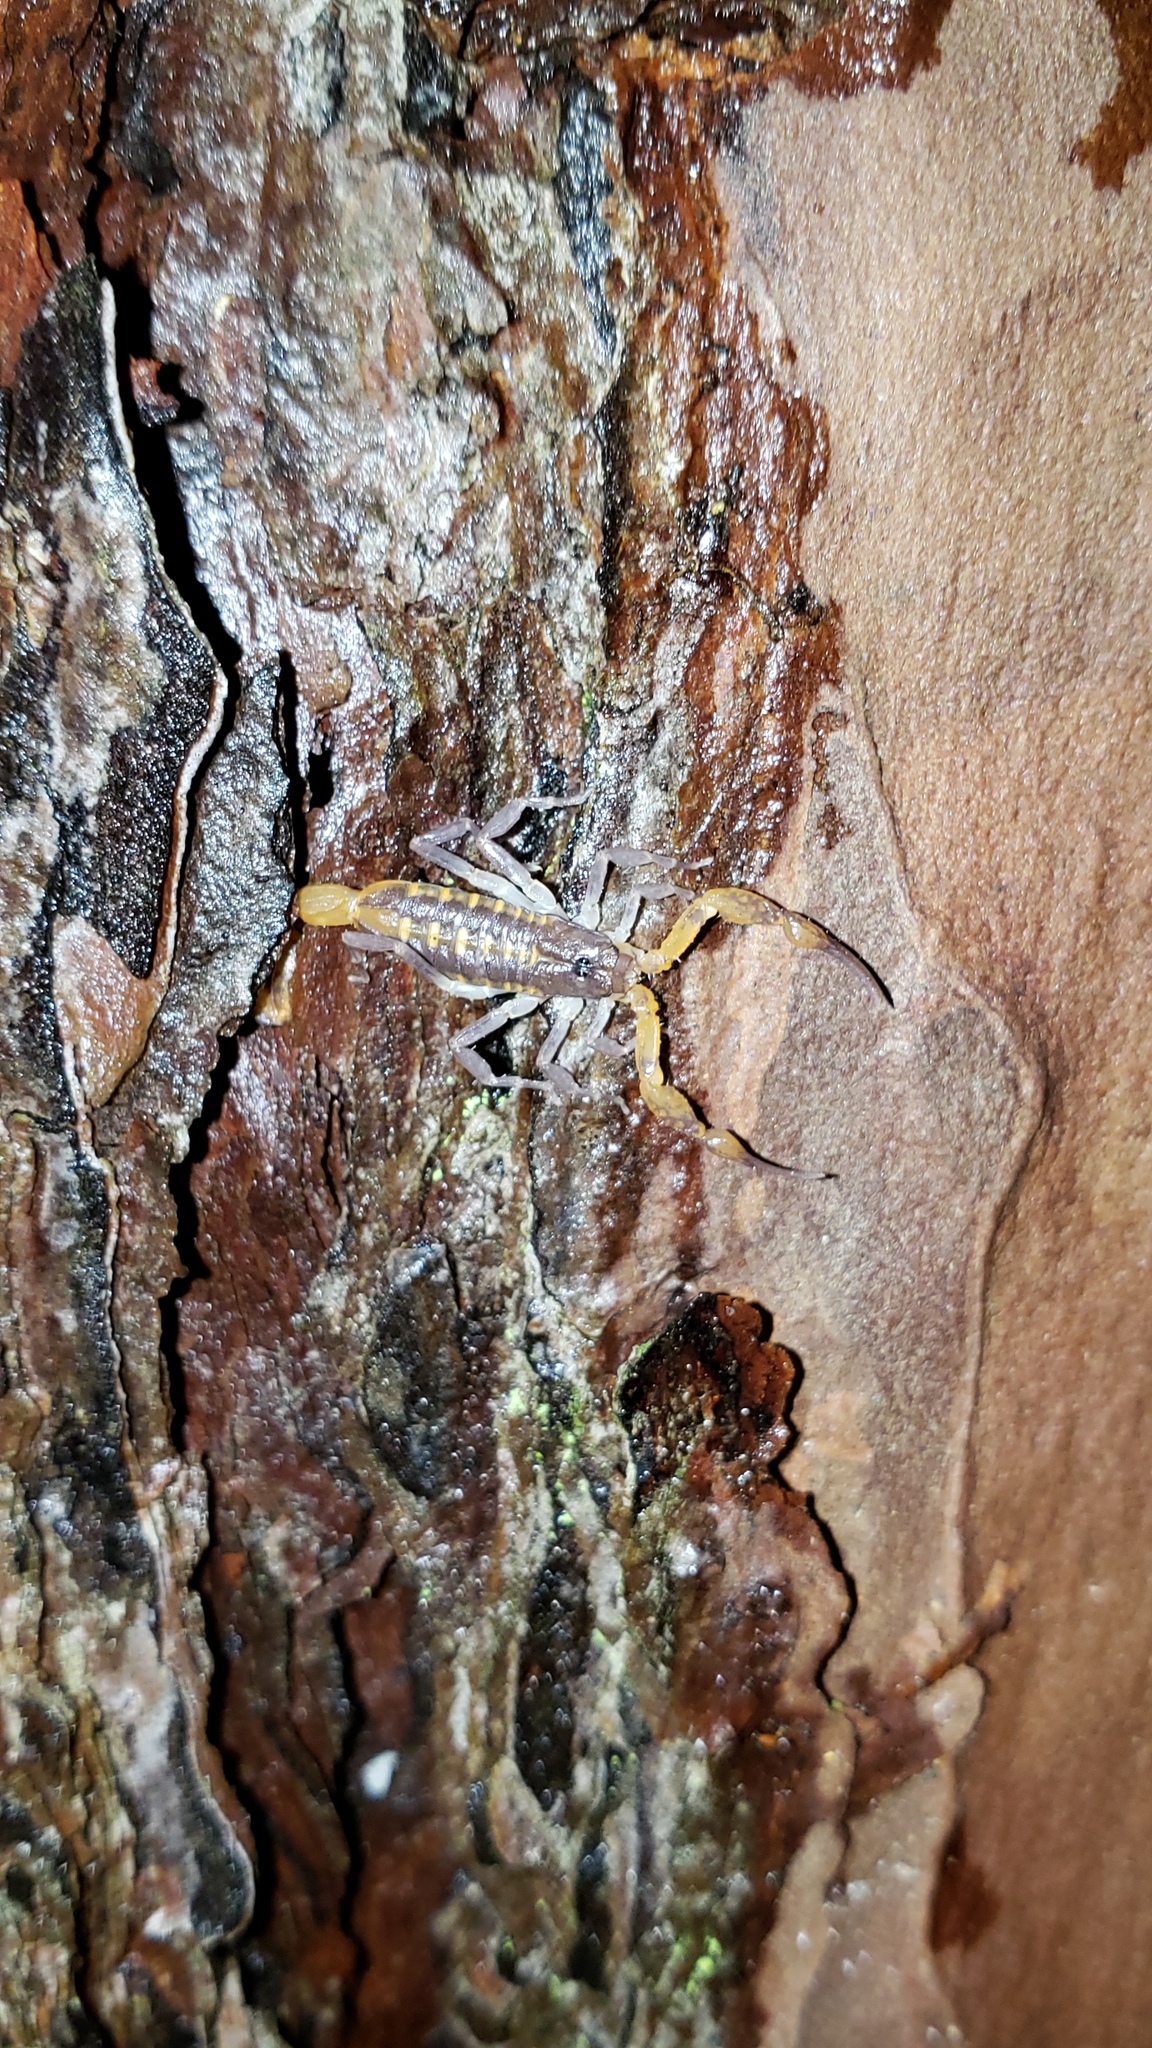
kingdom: Animalia
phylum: Arthropoda
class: Arachnida
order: Scorpiones
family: Buthidae
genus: Centruroides
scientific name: Centruroides hentzi
